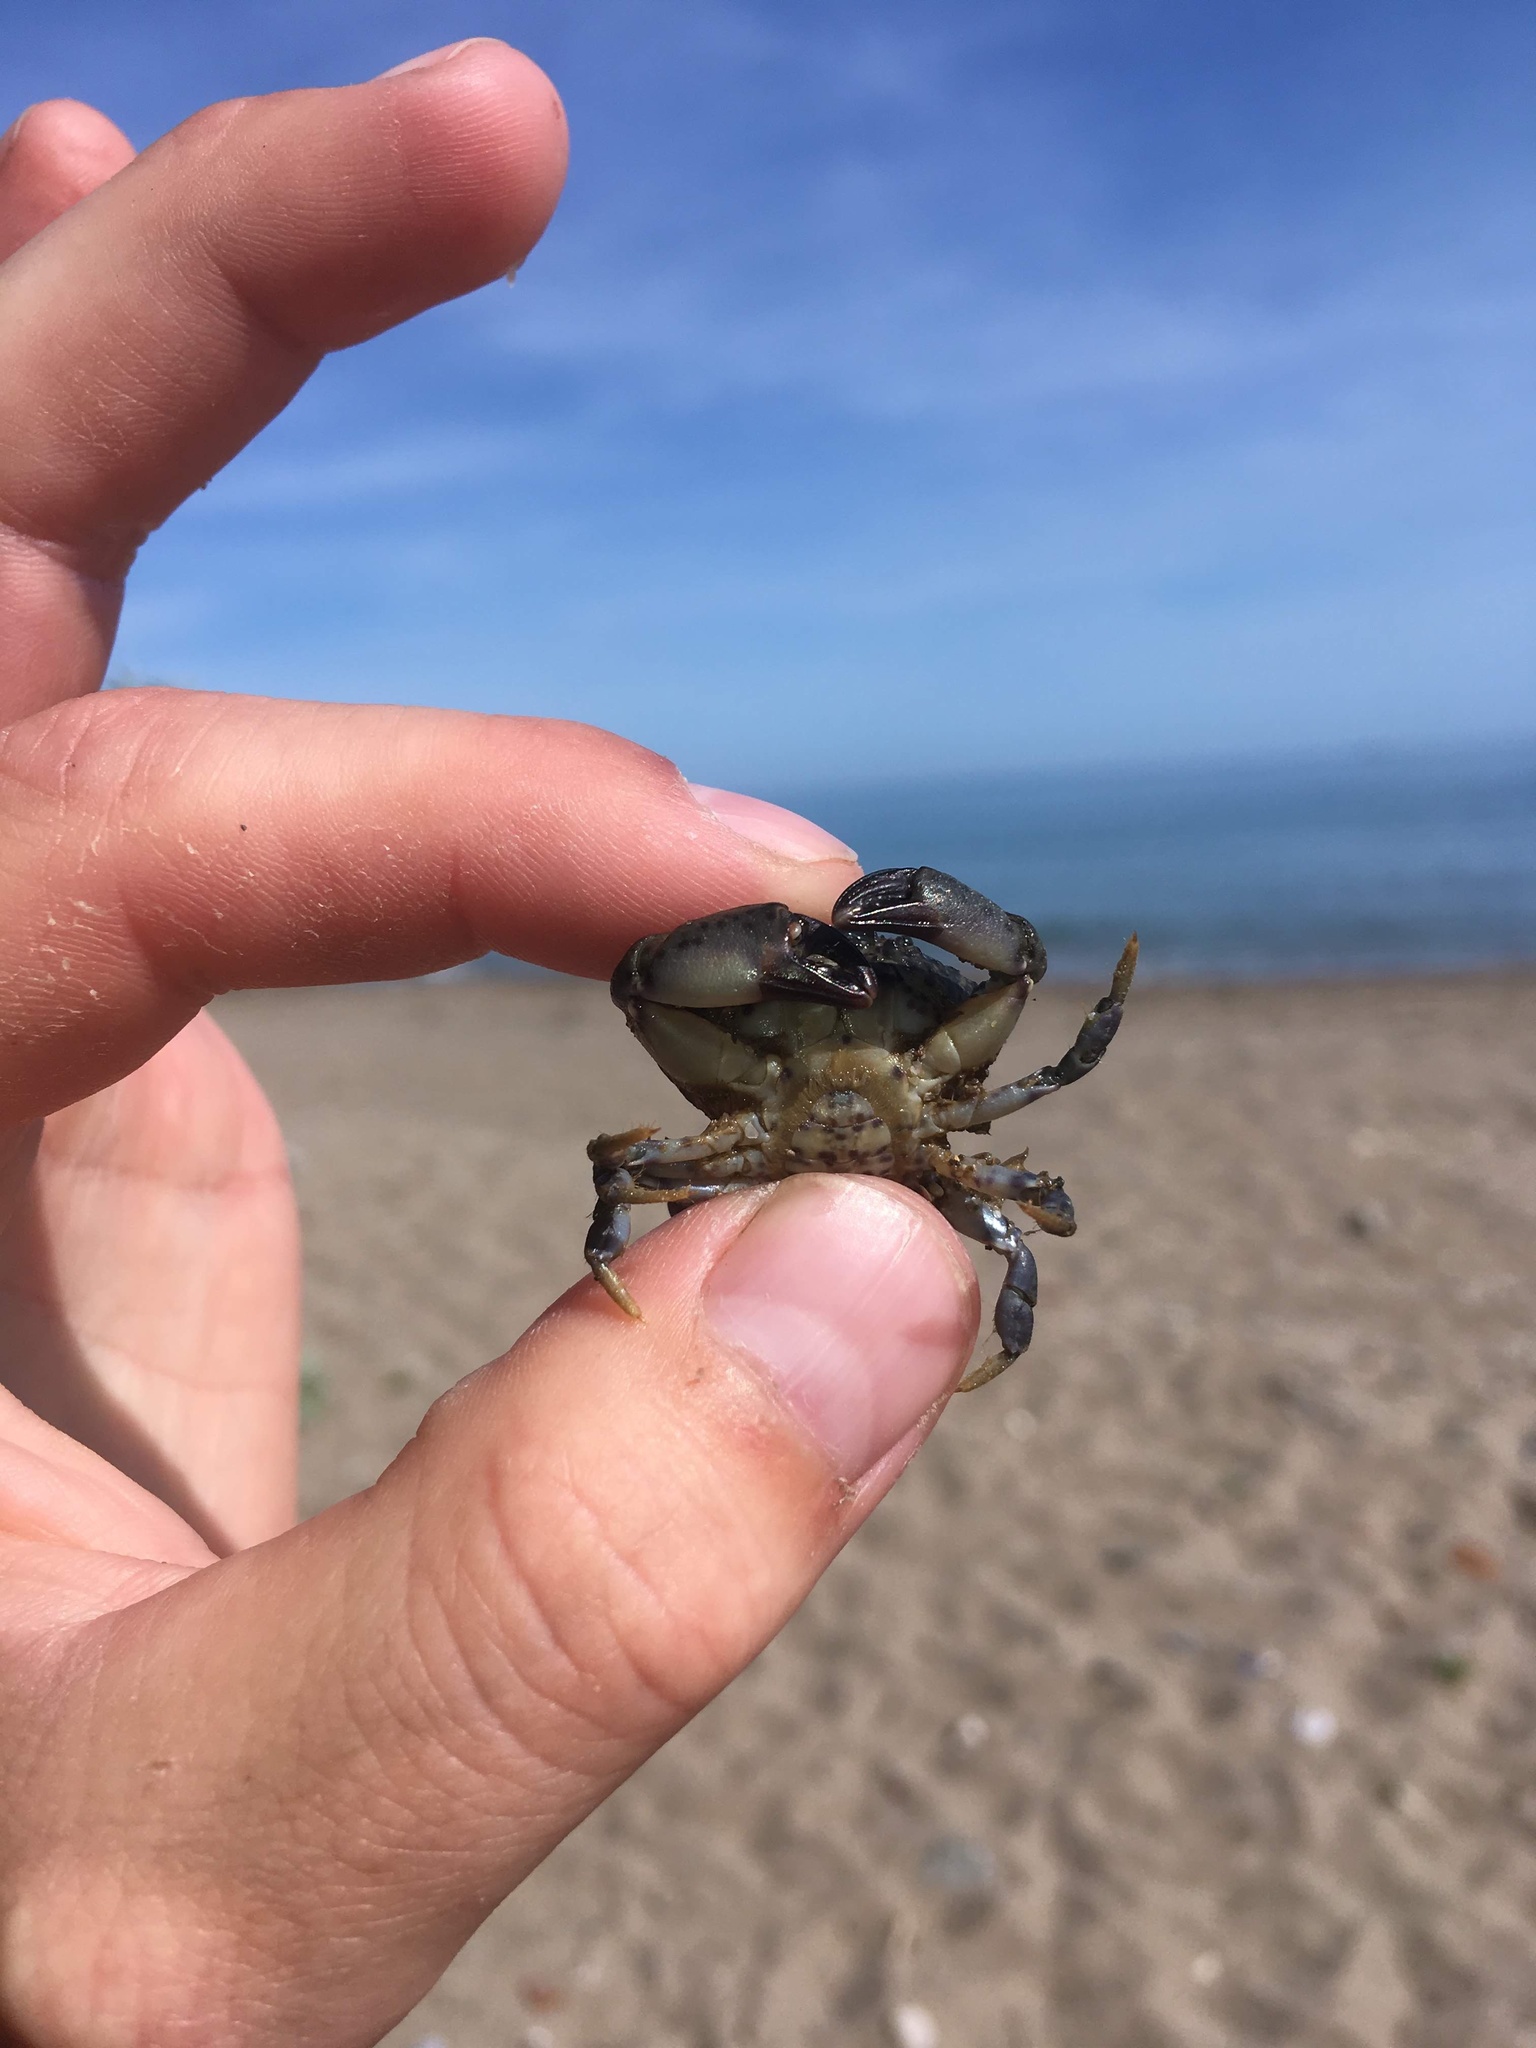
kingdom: Animalia
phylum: Arthropoda
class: Malacostraca
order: Decapoda
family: Xanthidae
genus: Xantho
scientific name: Xantho poressa
